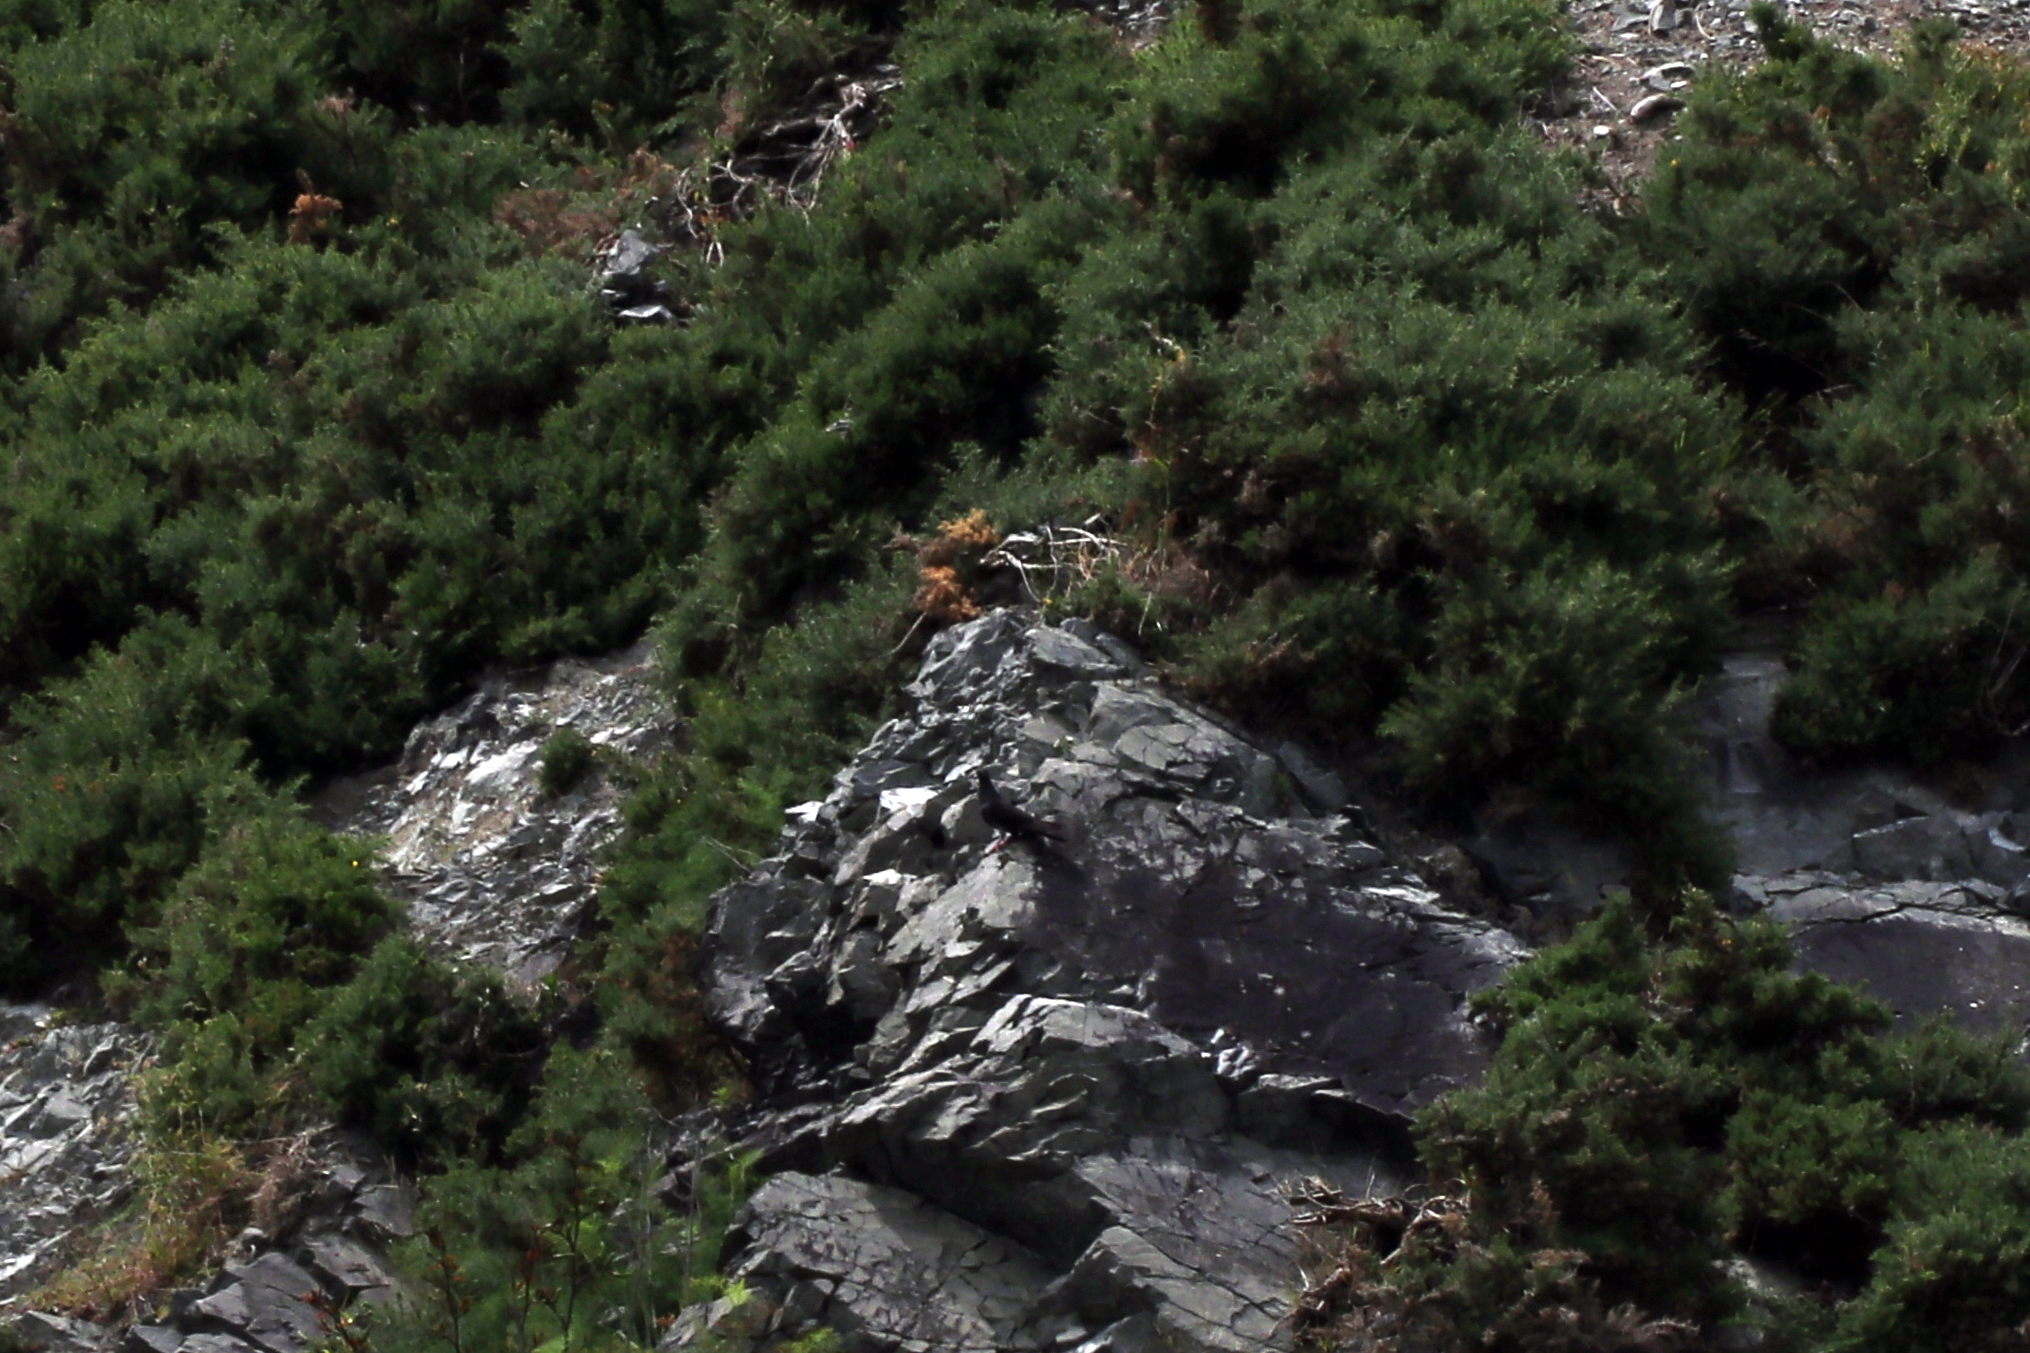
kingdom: Animalia
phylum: Chordata
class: Aves
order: Columbiformes
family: Columbidae
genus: Columba
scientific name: Columba livia
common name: Rock pigeon
